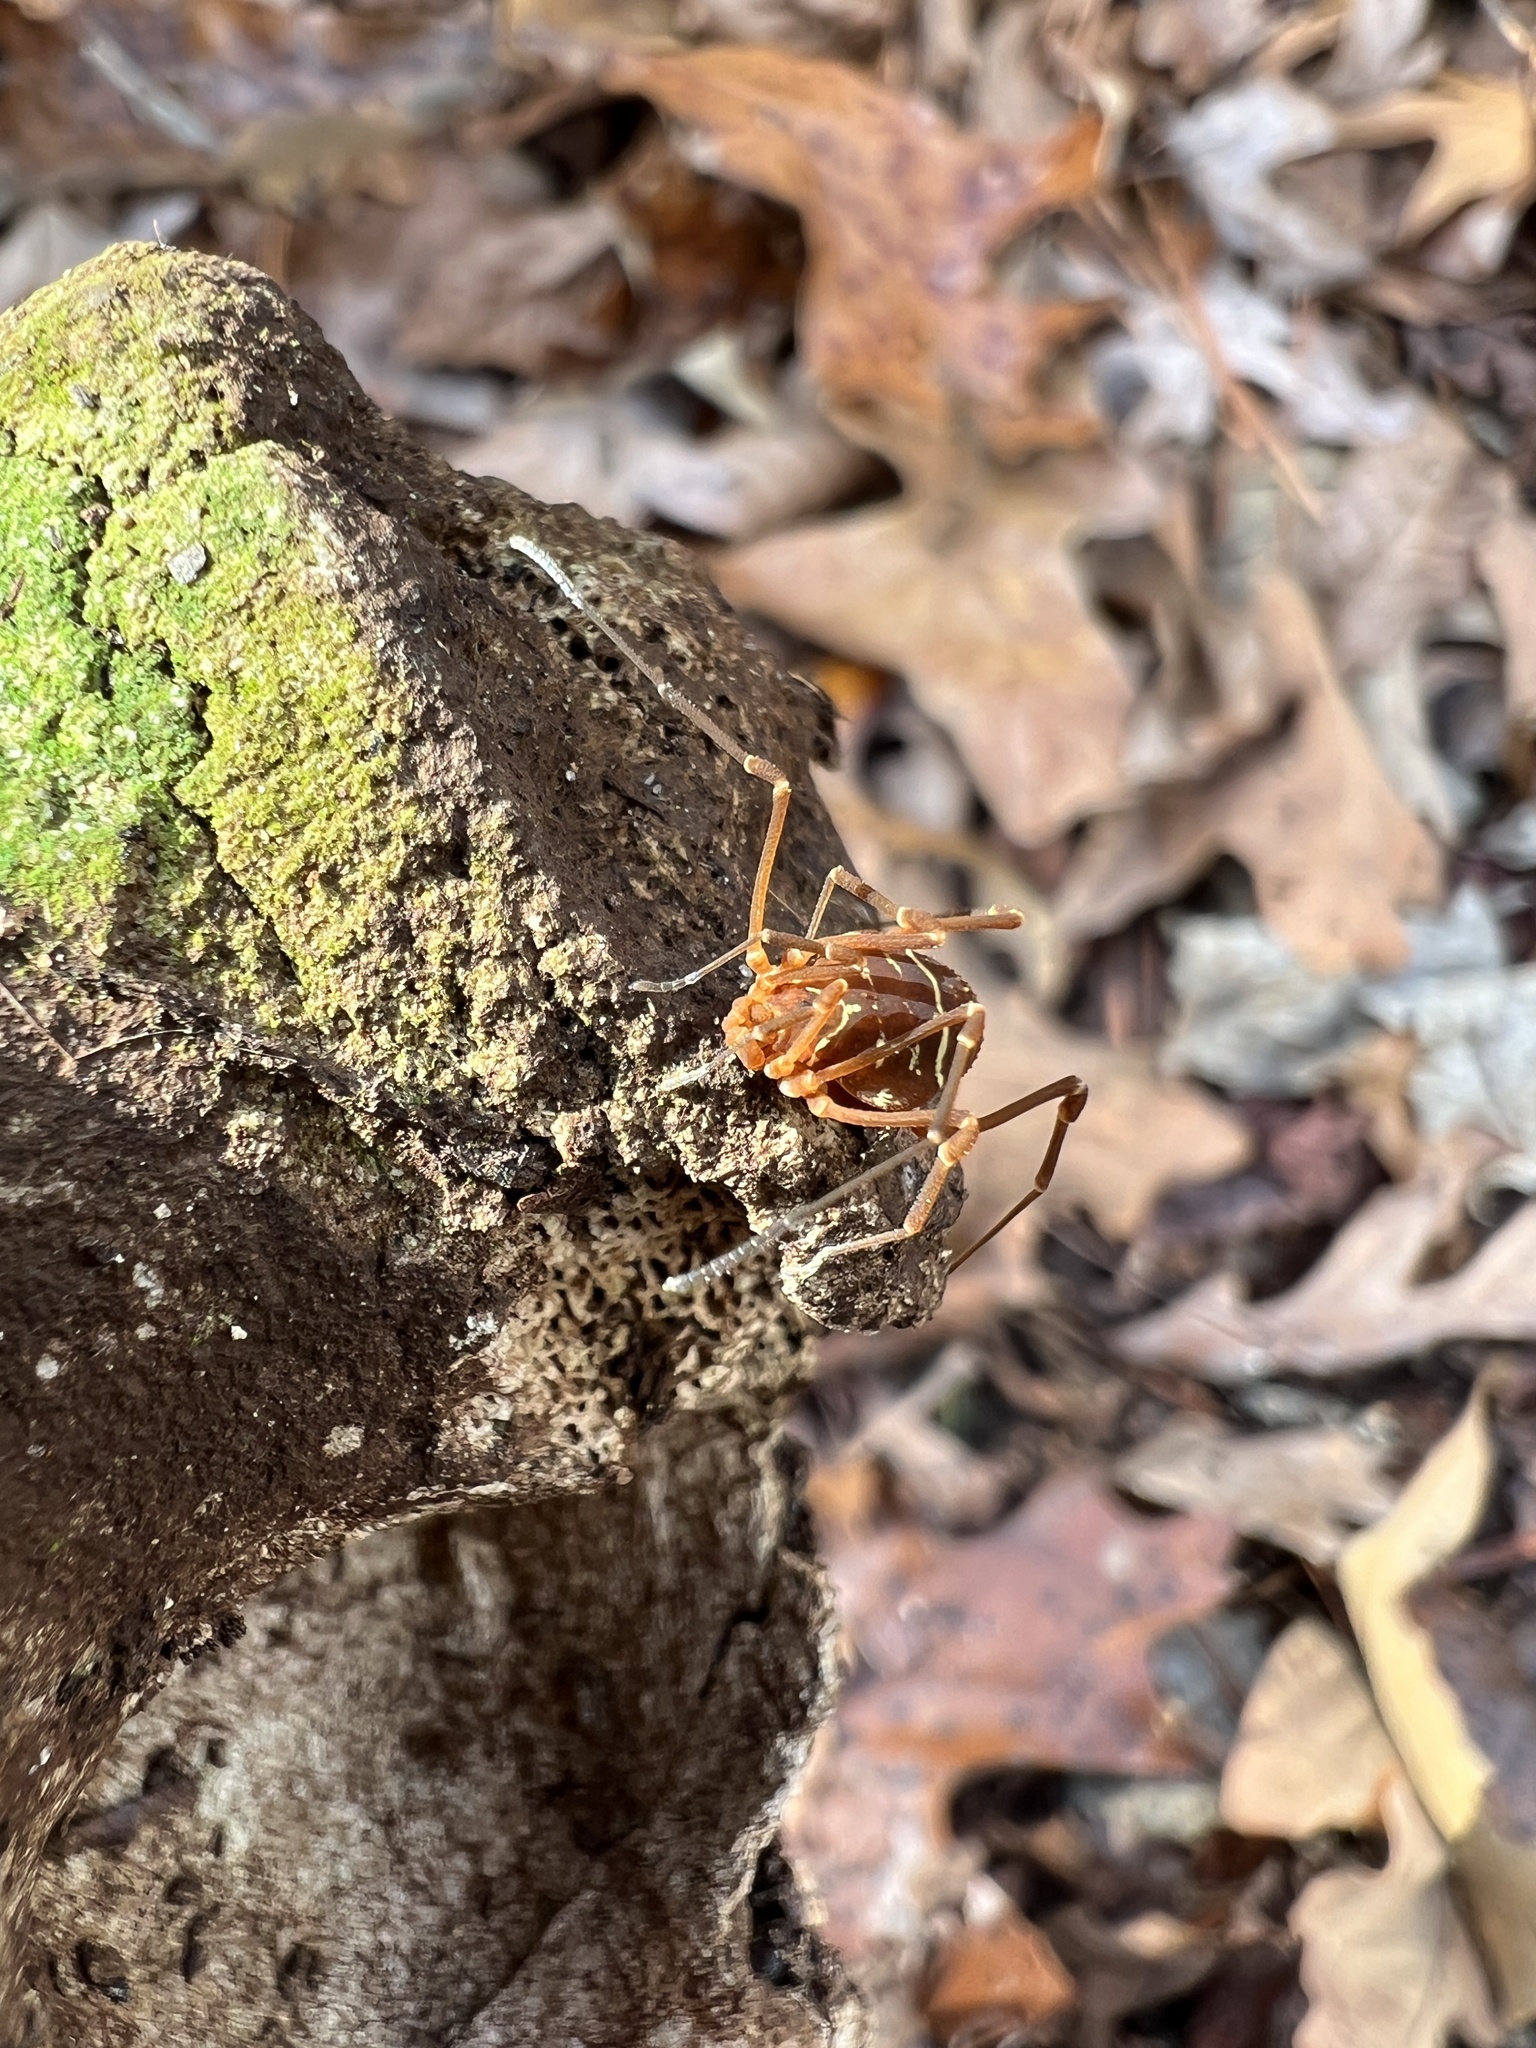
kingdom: Animalia
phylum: Arthropoda
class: Arachnida
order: Opiliones
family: Cosmetidae
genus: Libitioides
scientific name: Libitioides sayi
